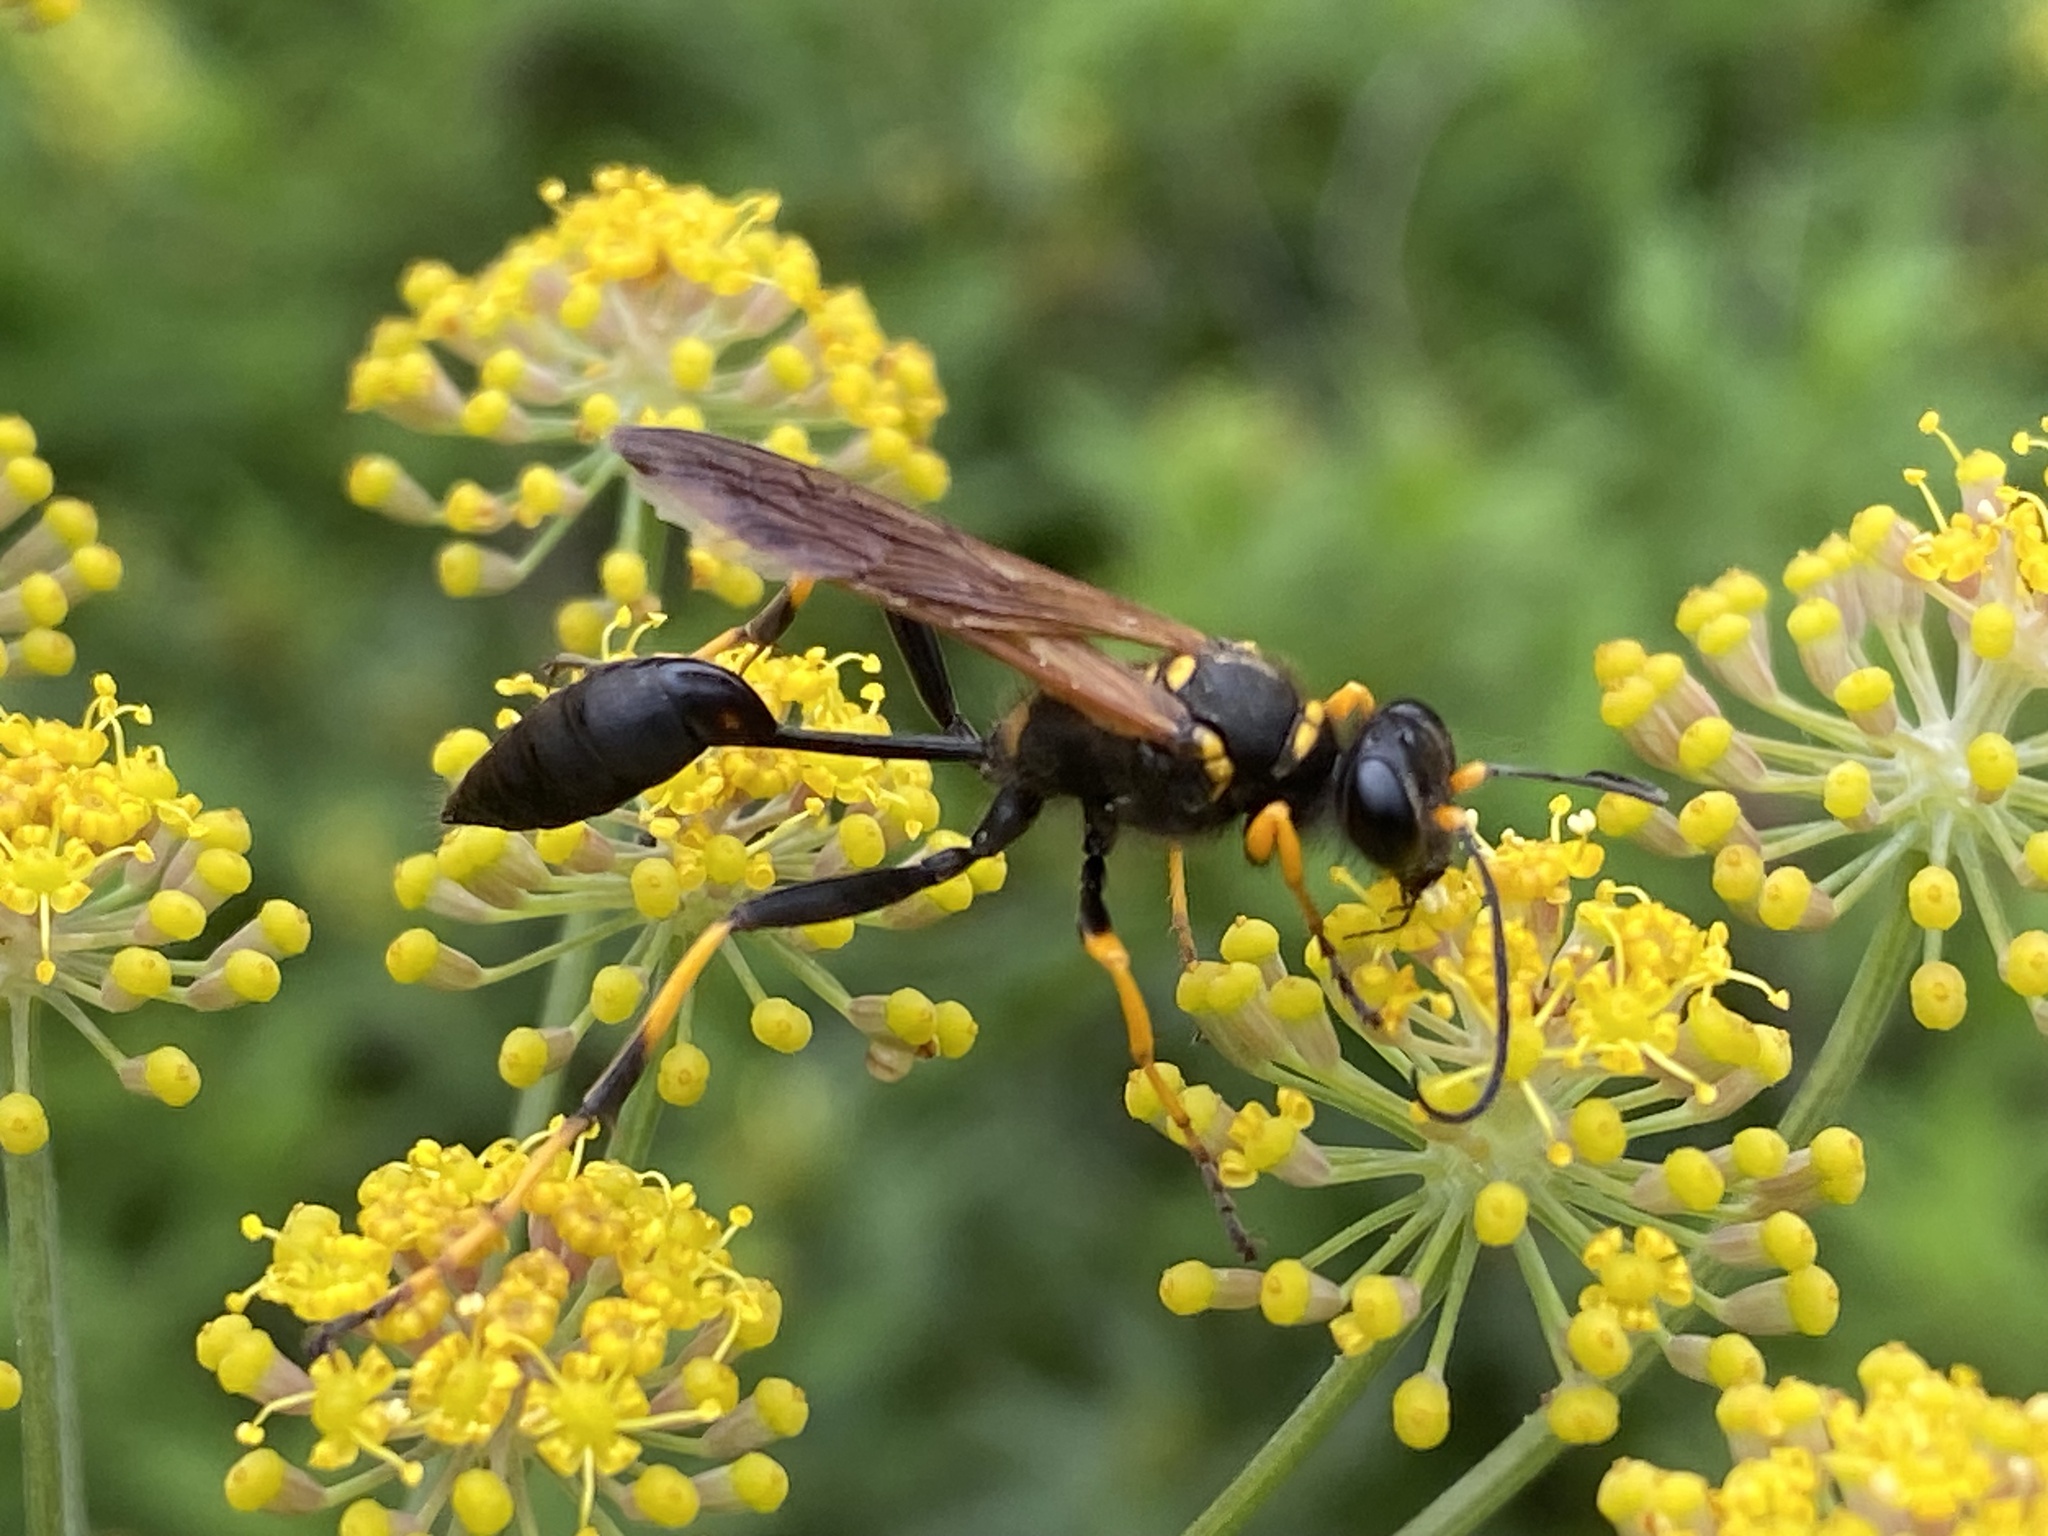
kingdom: Animalia
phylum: Arthropoda
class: Insecta
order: Hymenoptera
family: Sphecidae
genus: Sceliphron
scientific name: Sceliphron caementarium
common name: Mud dauber
